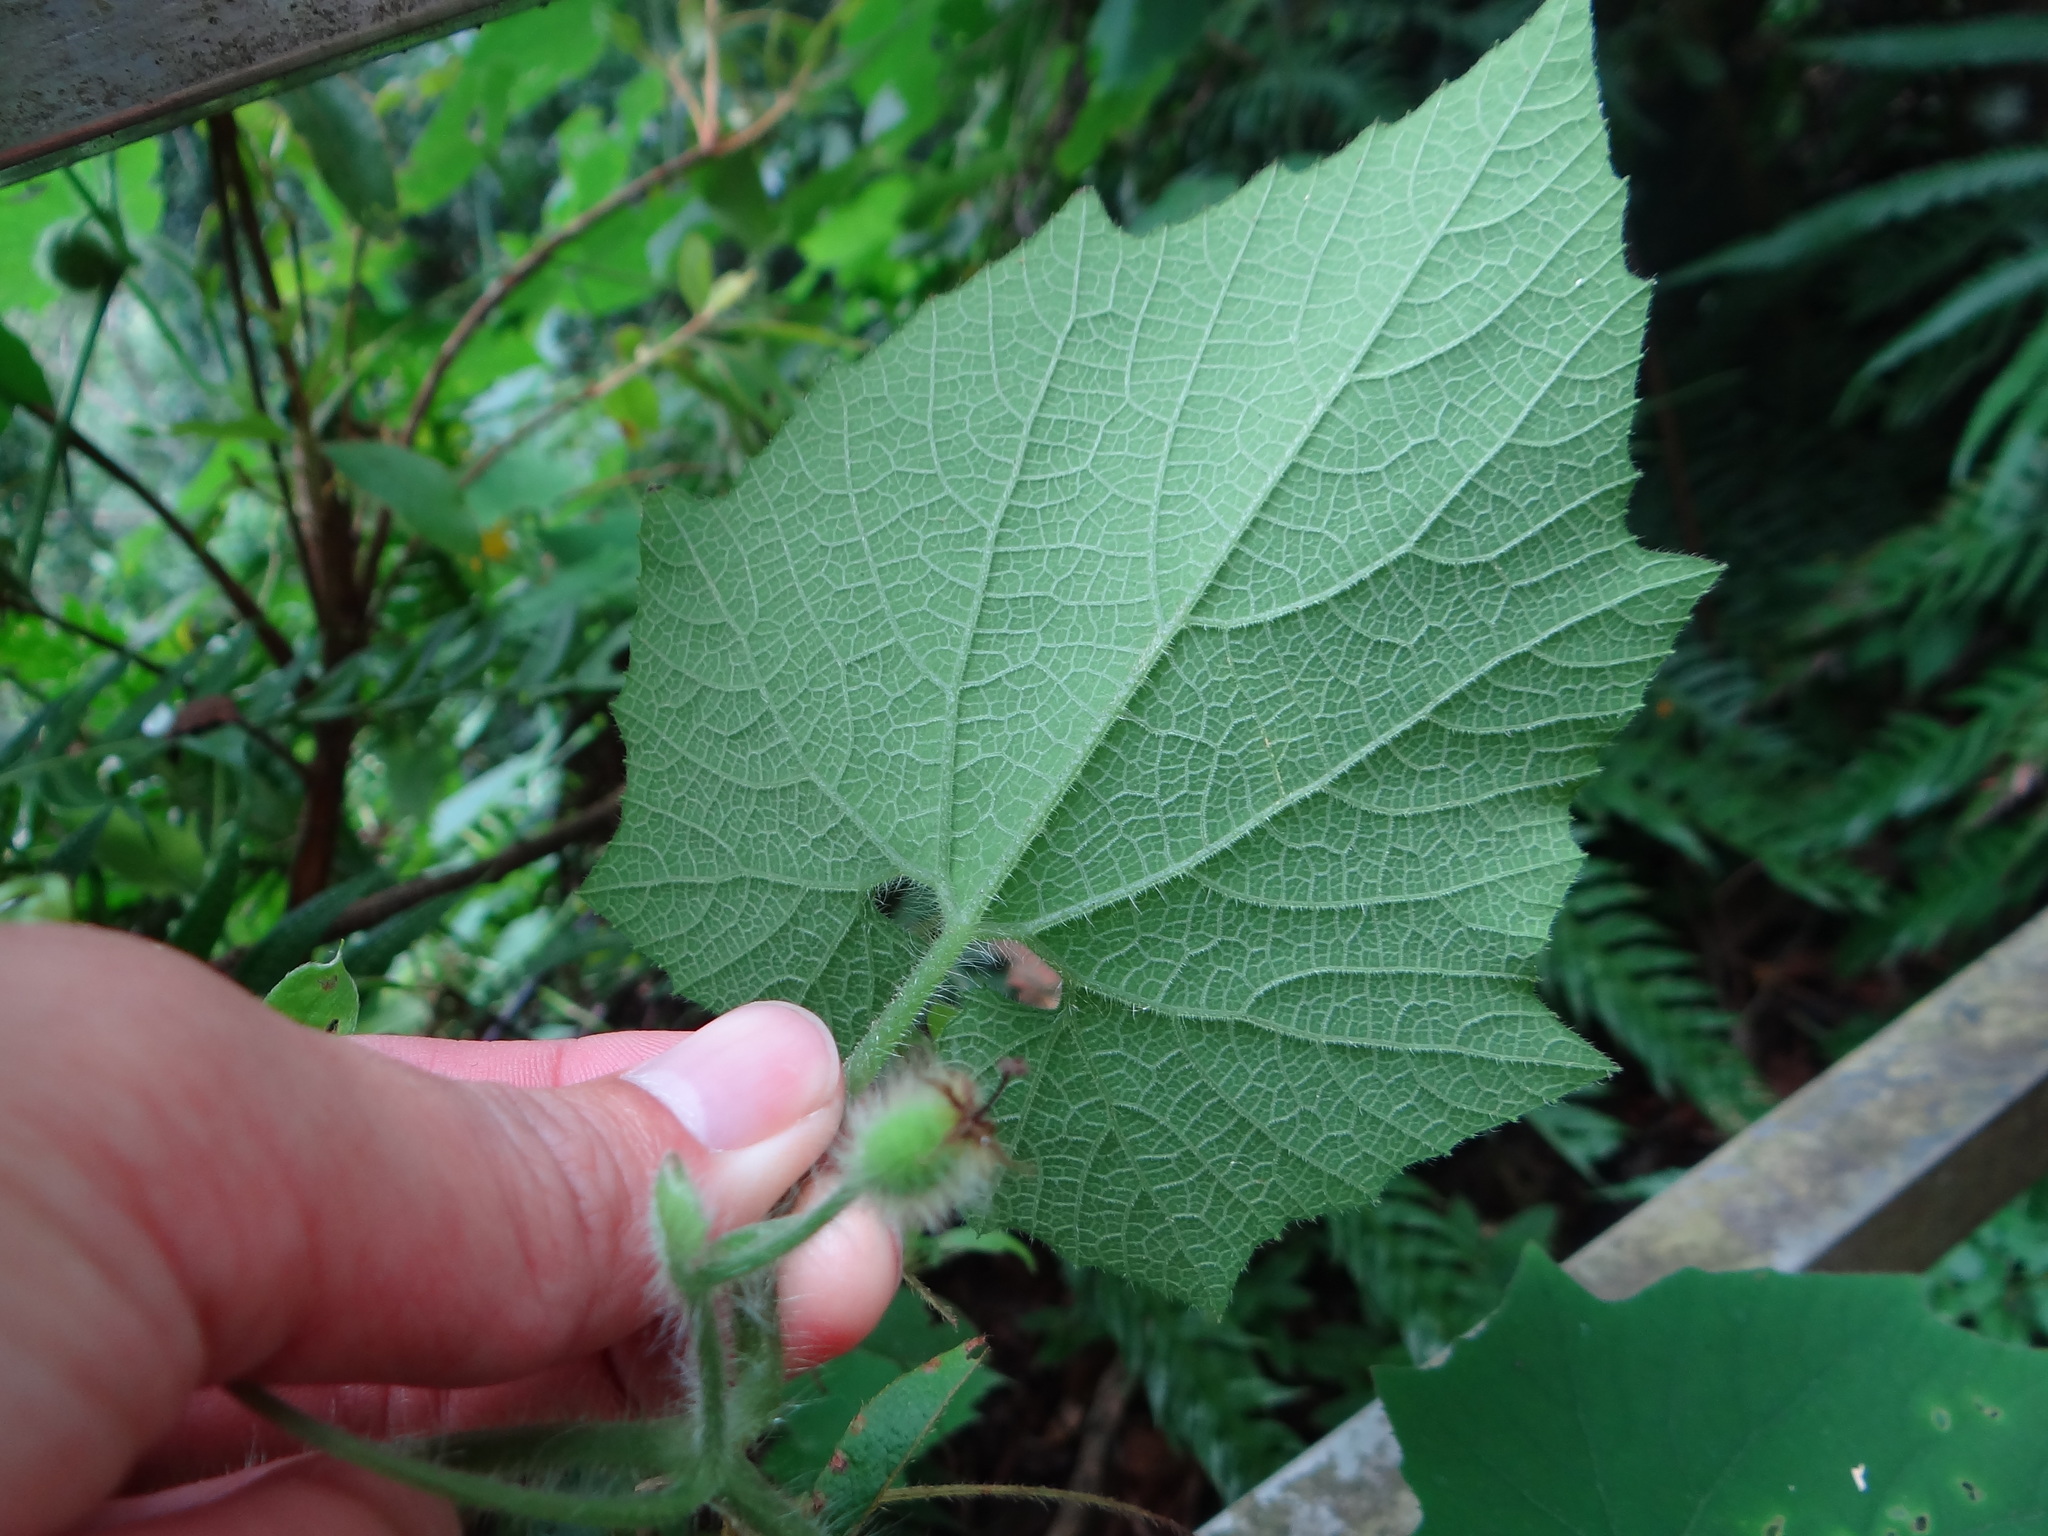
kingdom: Plantae
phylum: Tracheophyta
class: Magnoliopsida
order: Cucurbitales
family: Cucurbitaceae
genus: Thladiantha
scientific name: Thladiantha nudiflora
